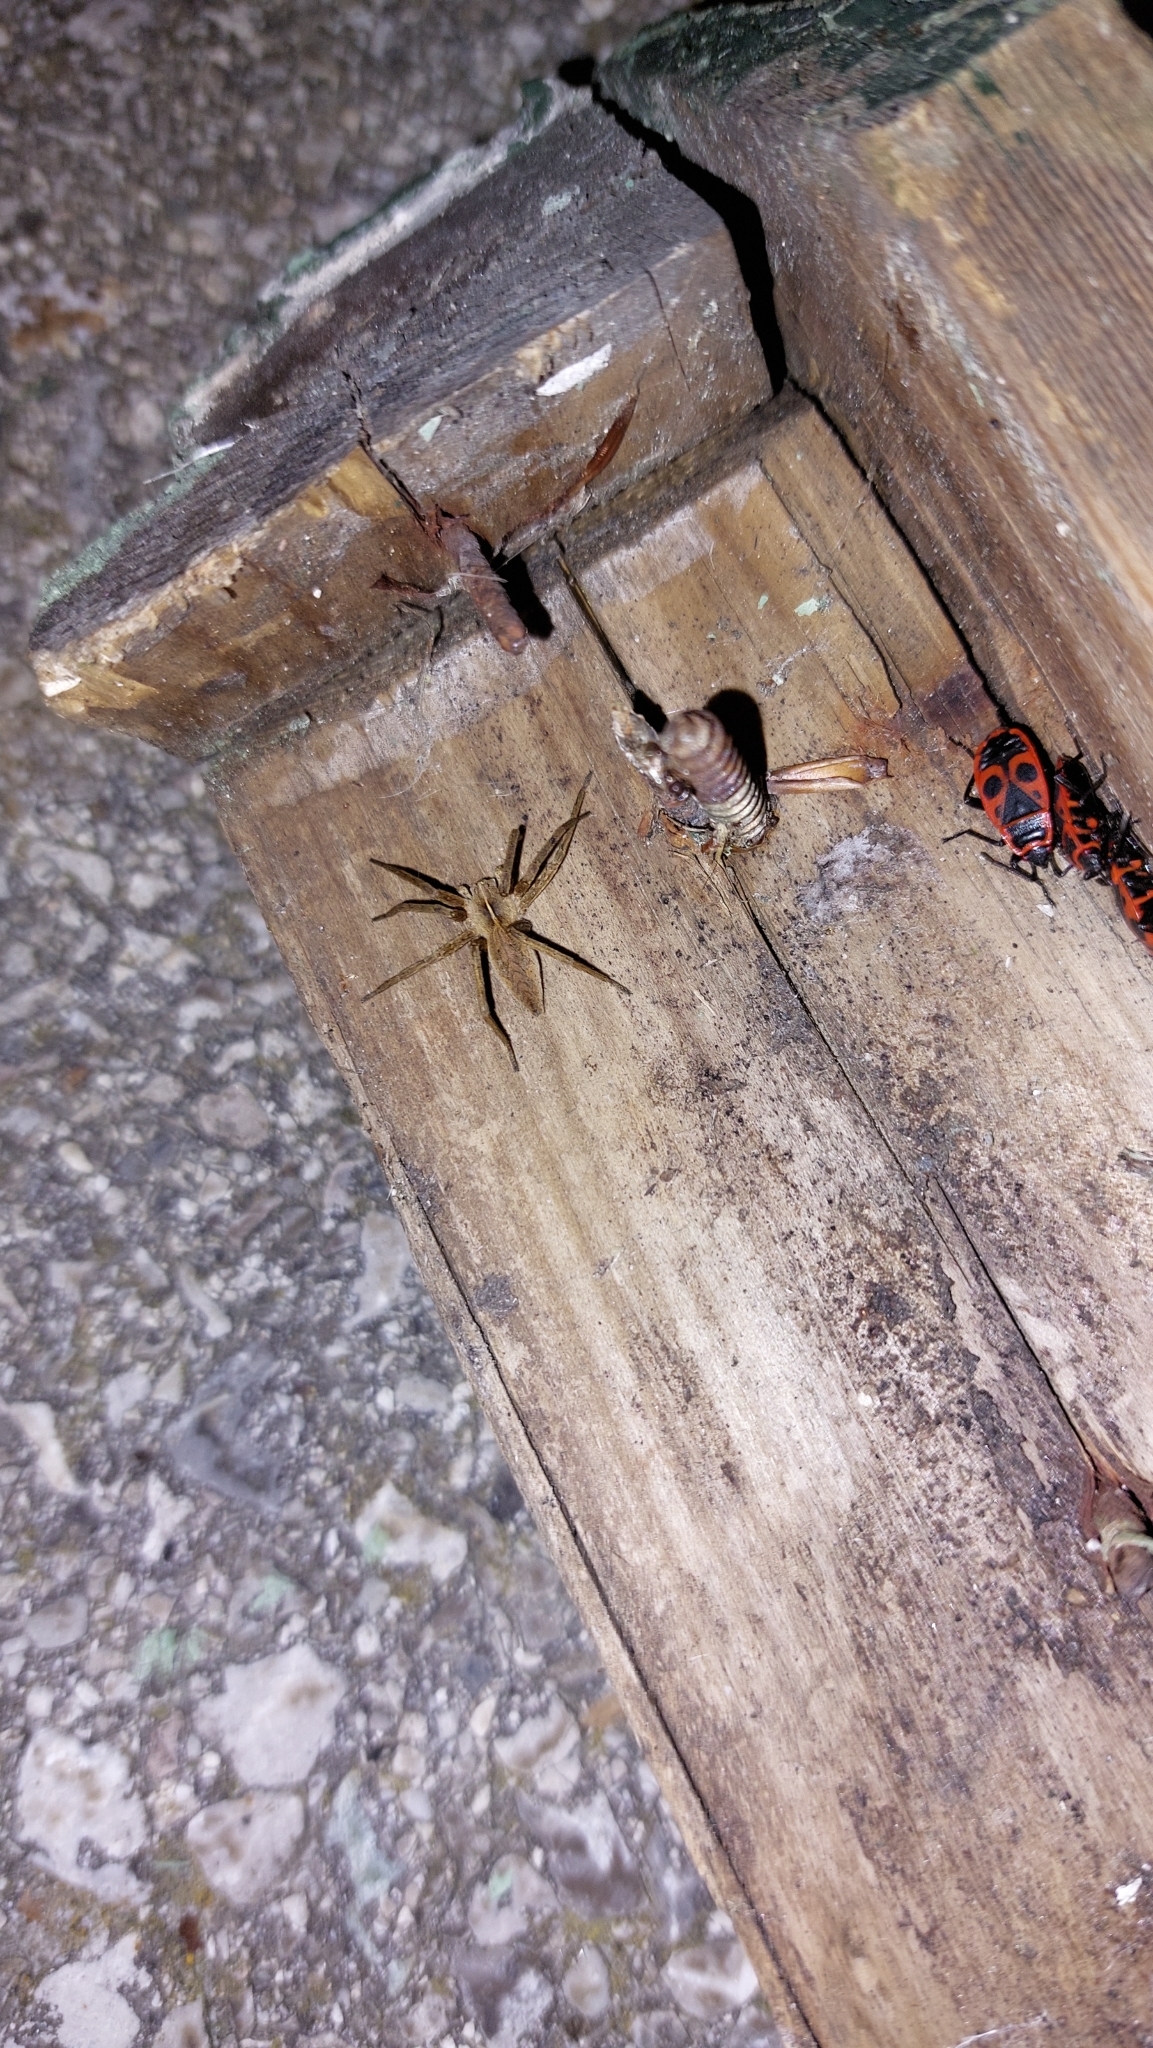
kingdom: Animalia
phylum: Arthropoda
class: Arachnida
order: Araneae
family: Pisauridae
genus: Pisaura
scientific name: Pisaura mirabilis
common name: Tent spider
